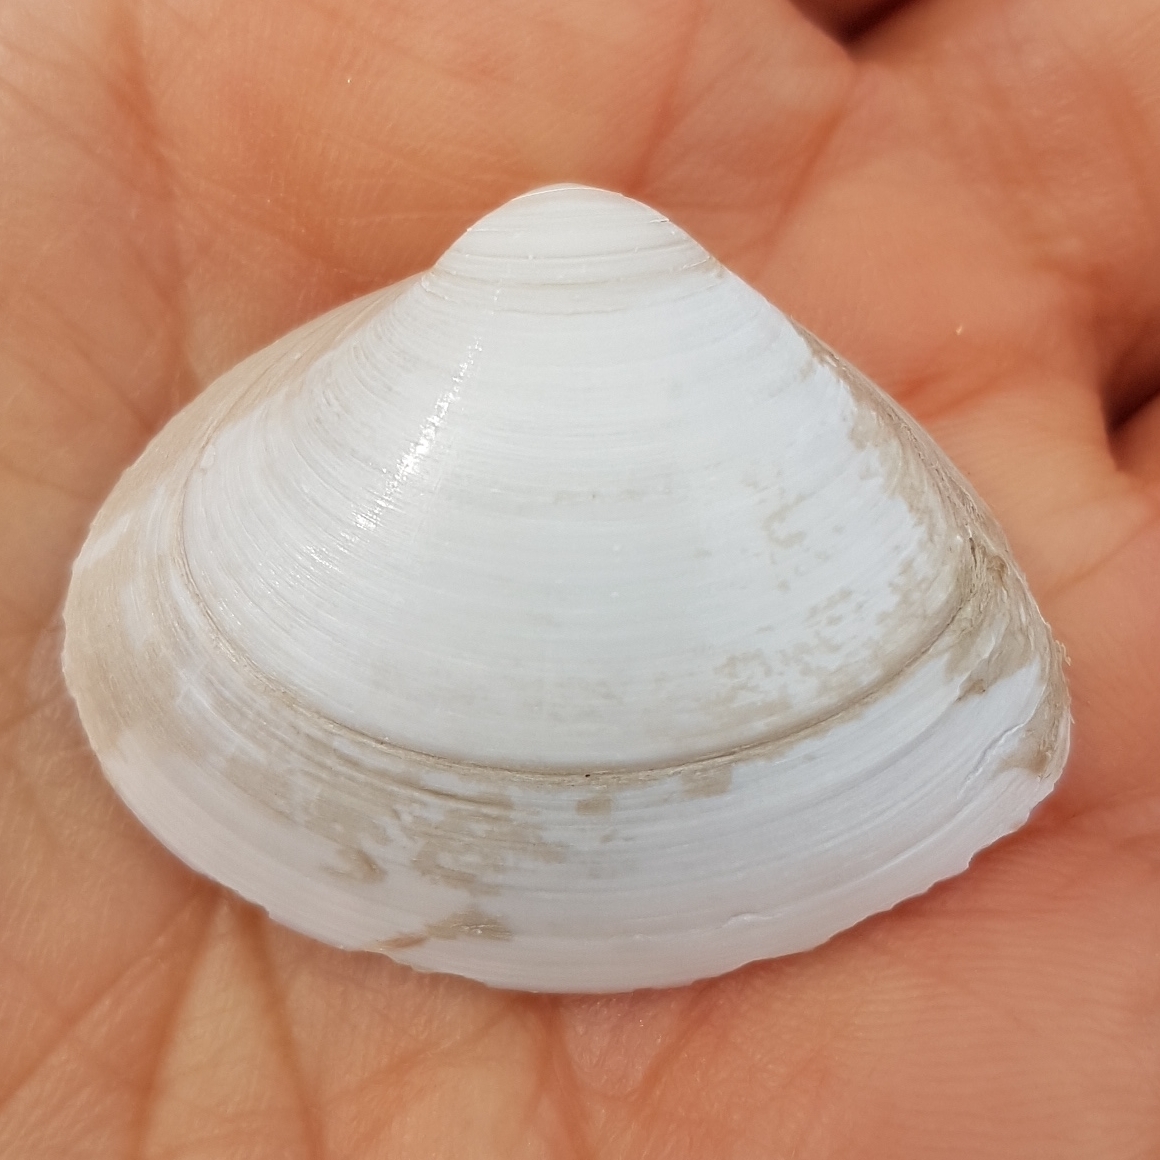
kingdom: Animalia
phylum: Mollusca
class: Bivalvia
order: Venerida
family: Mactridae
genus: Spisula
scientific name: Spisula solida
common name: Thick trough shell
